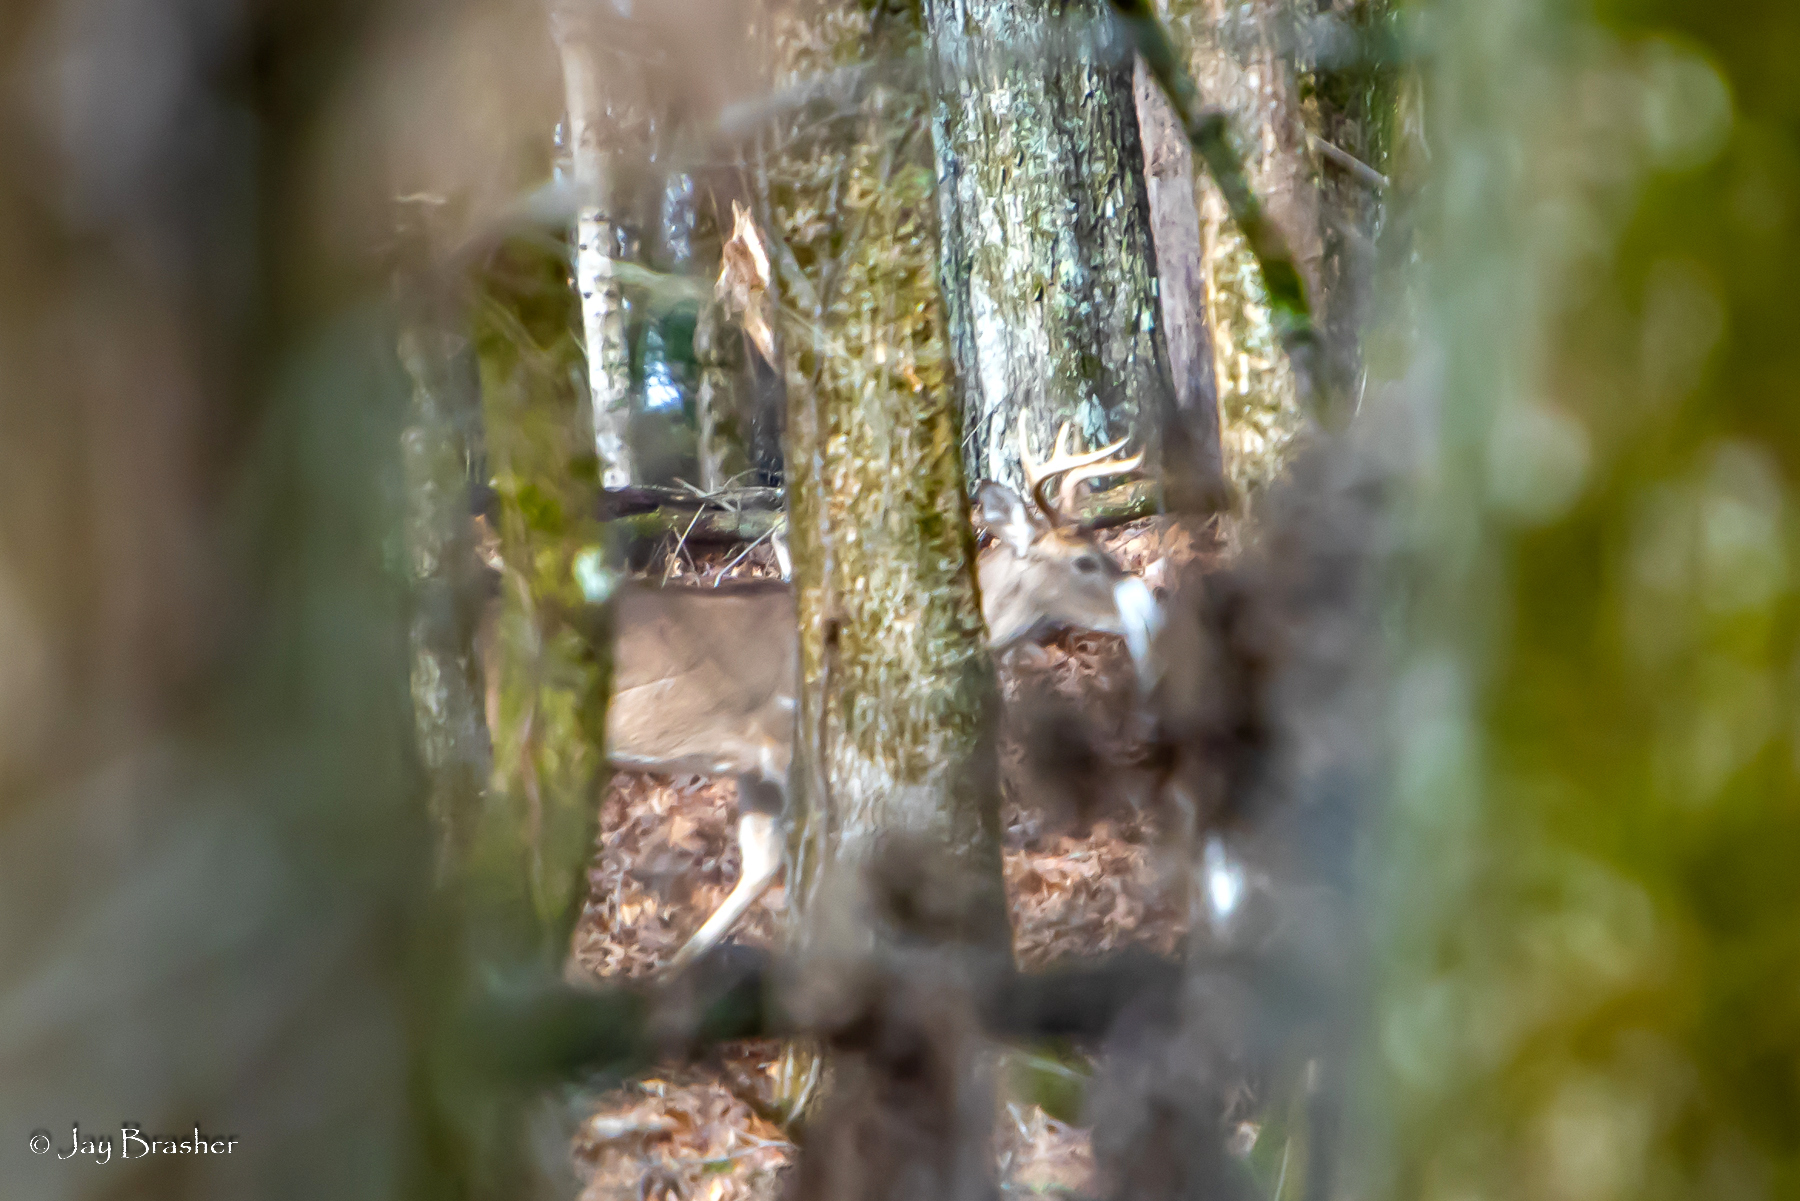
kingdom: Animalia
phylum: Chordata
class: Mammalia
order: Artiodactyla
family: Cervidae
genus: Odocoileus
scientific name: Odocoileus virginianus
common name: White-tailed deer
